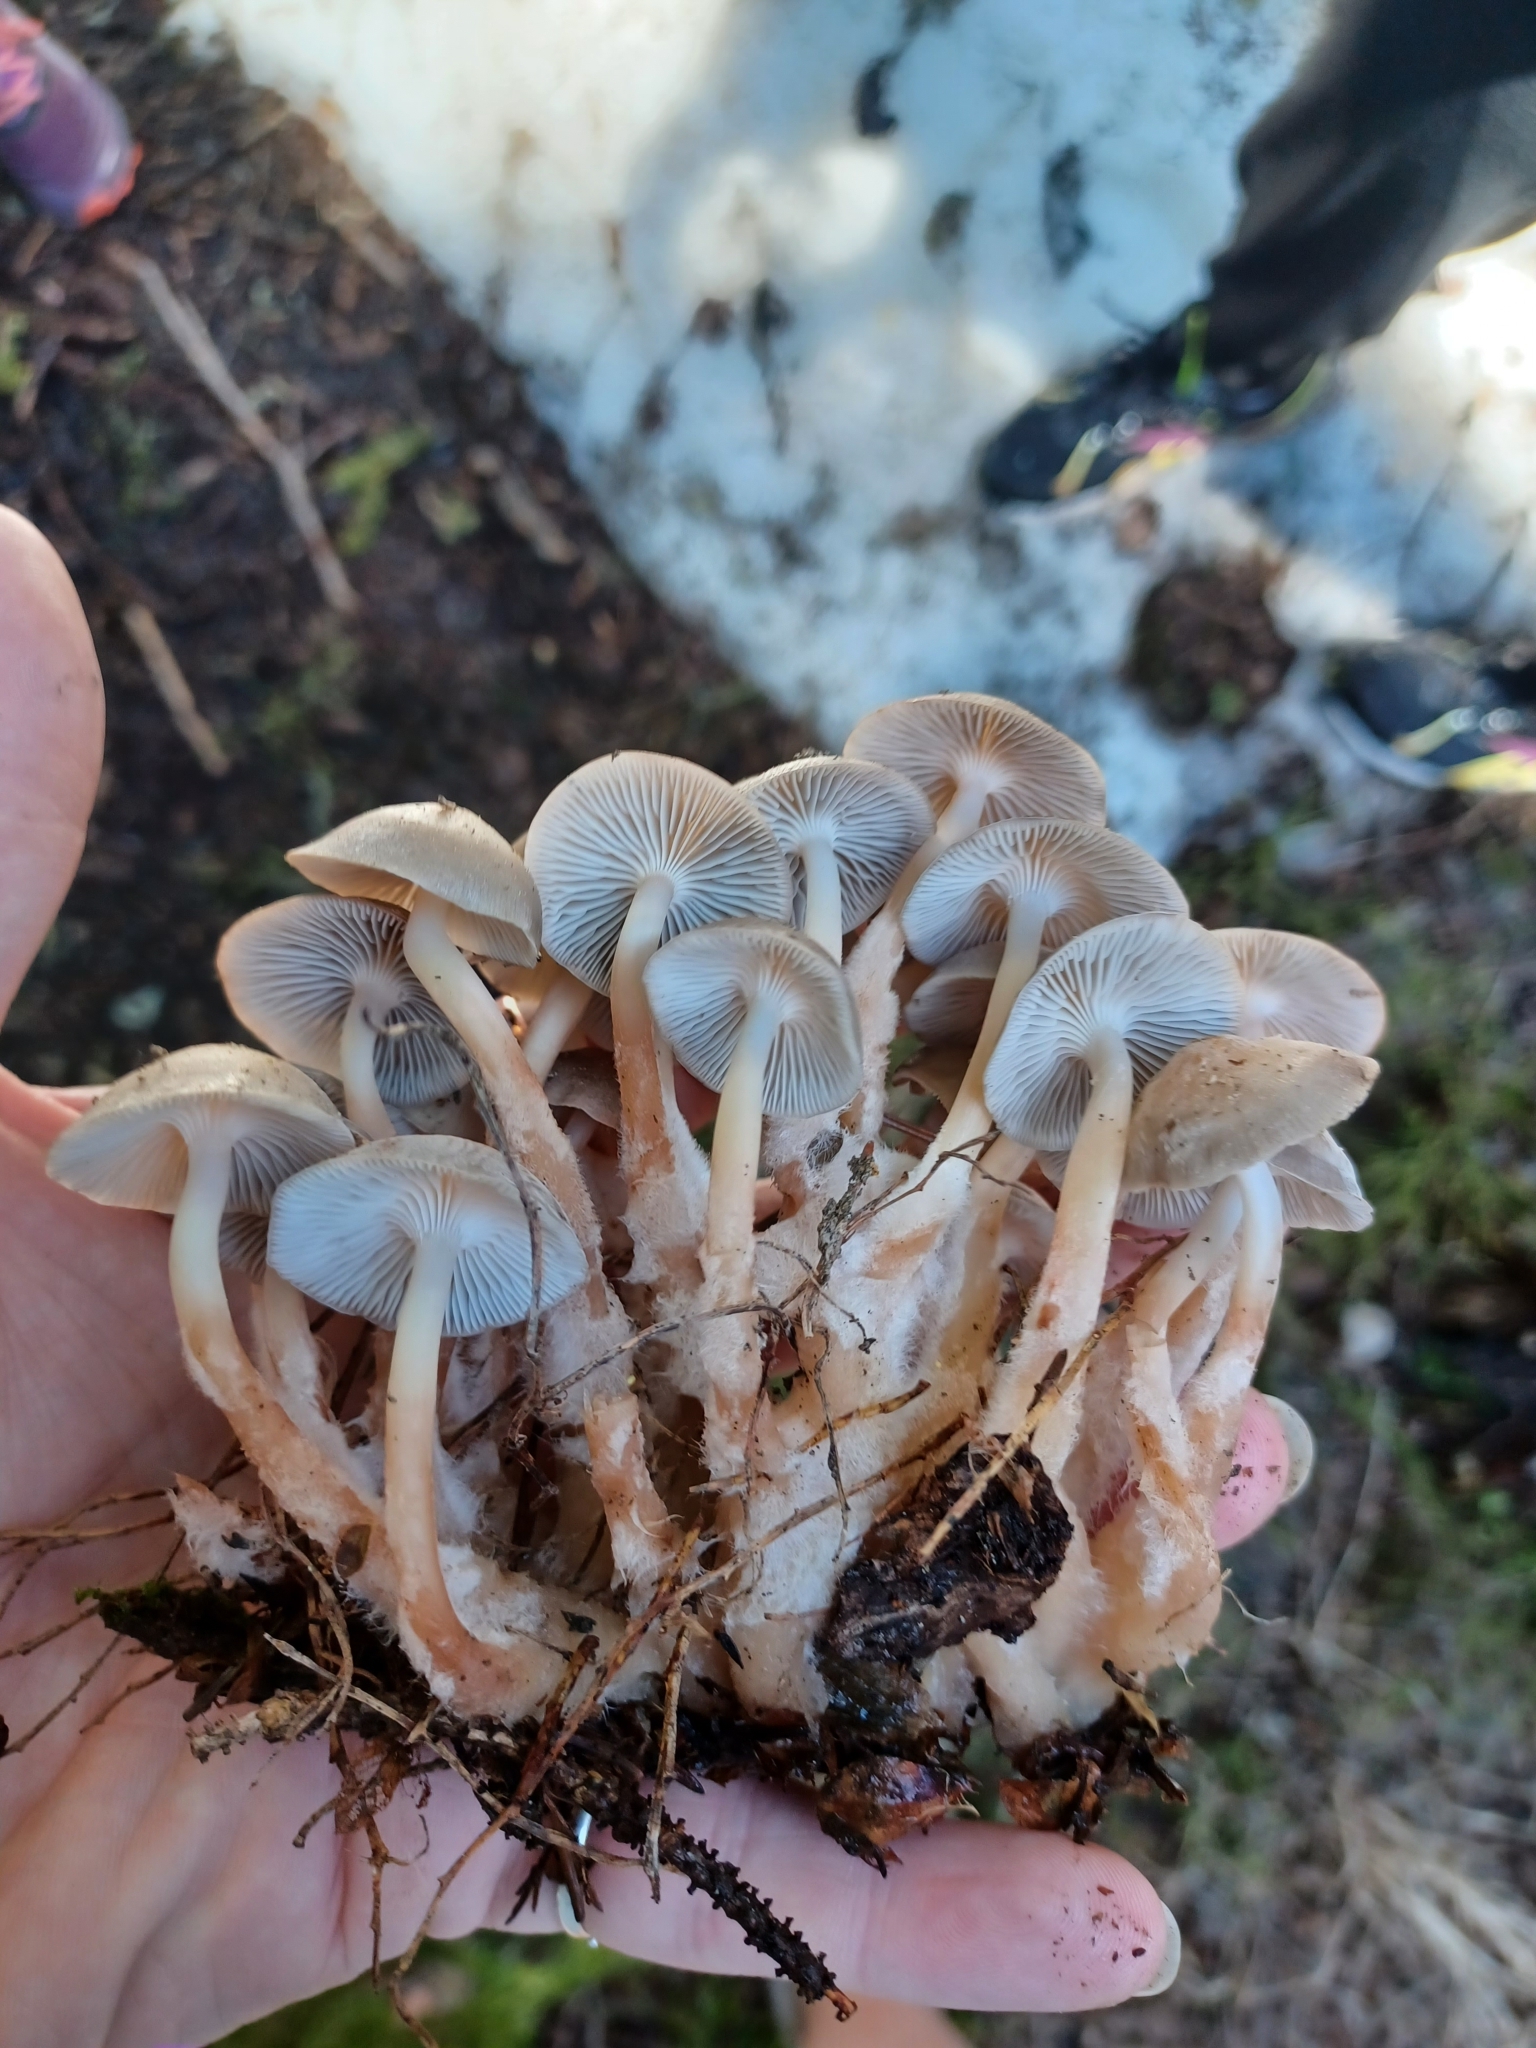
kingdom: Fungi
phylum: Basidiomycota
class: Agaricomycetes
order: Agaricales
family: Mycenaceae
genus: Mycena
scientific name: Mycena overholtsii
